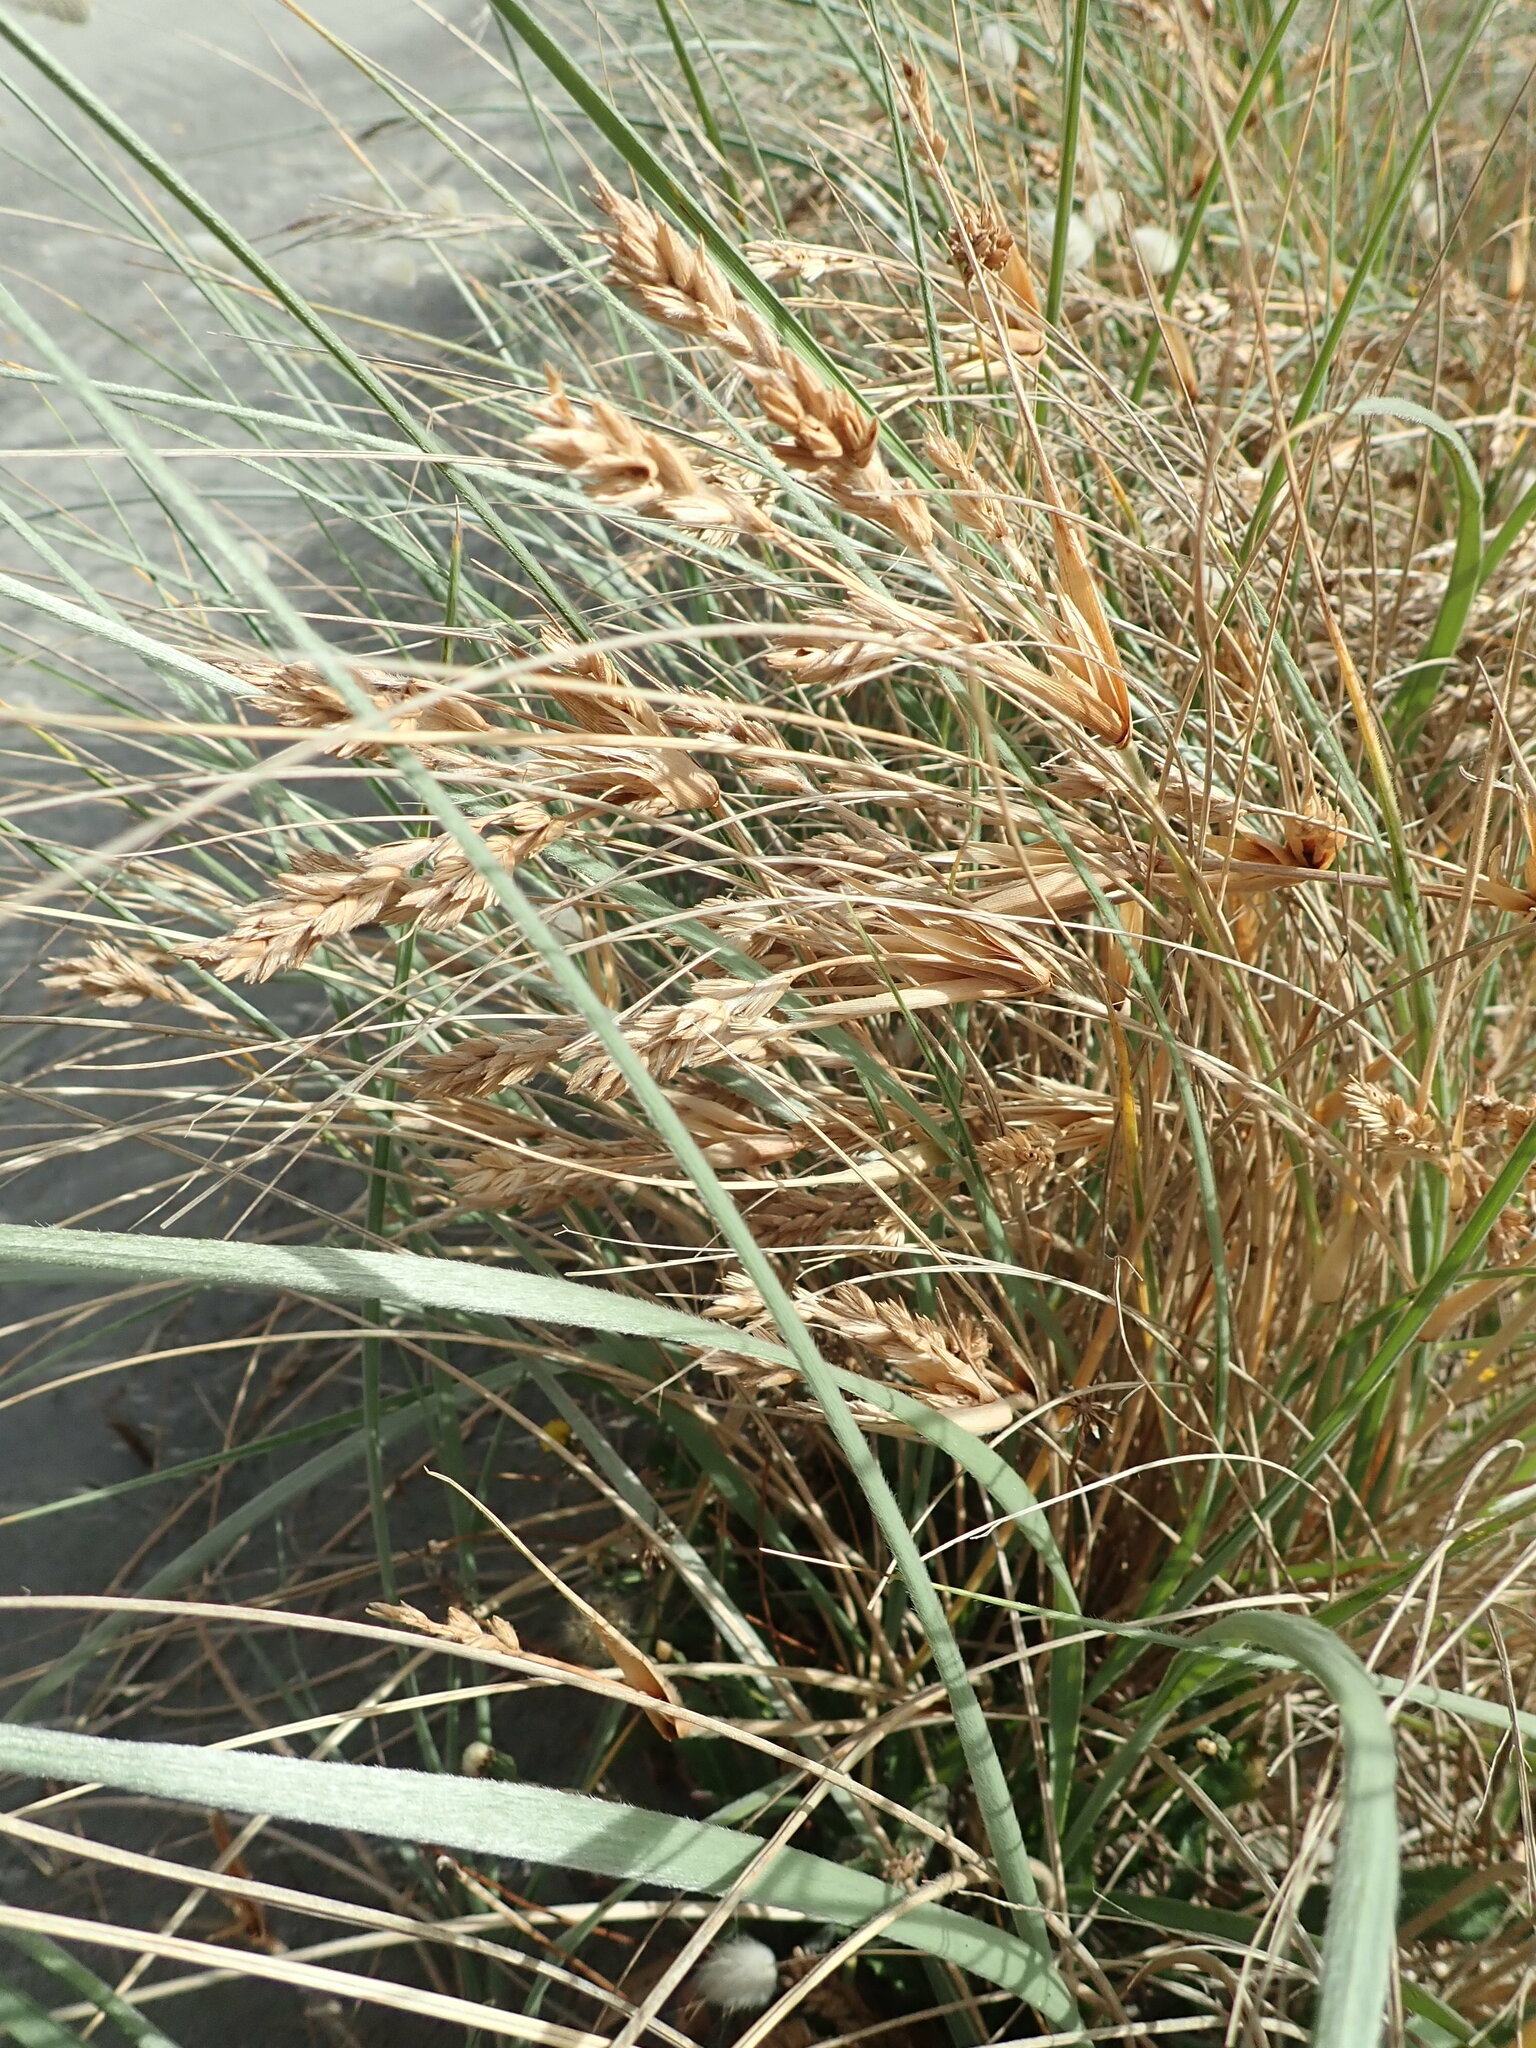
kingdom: Plantae
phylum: Tracheophyta
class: Liliopsida
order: Poales
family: Poaceae
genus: Spinifex
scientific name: Spinifex sericeus
